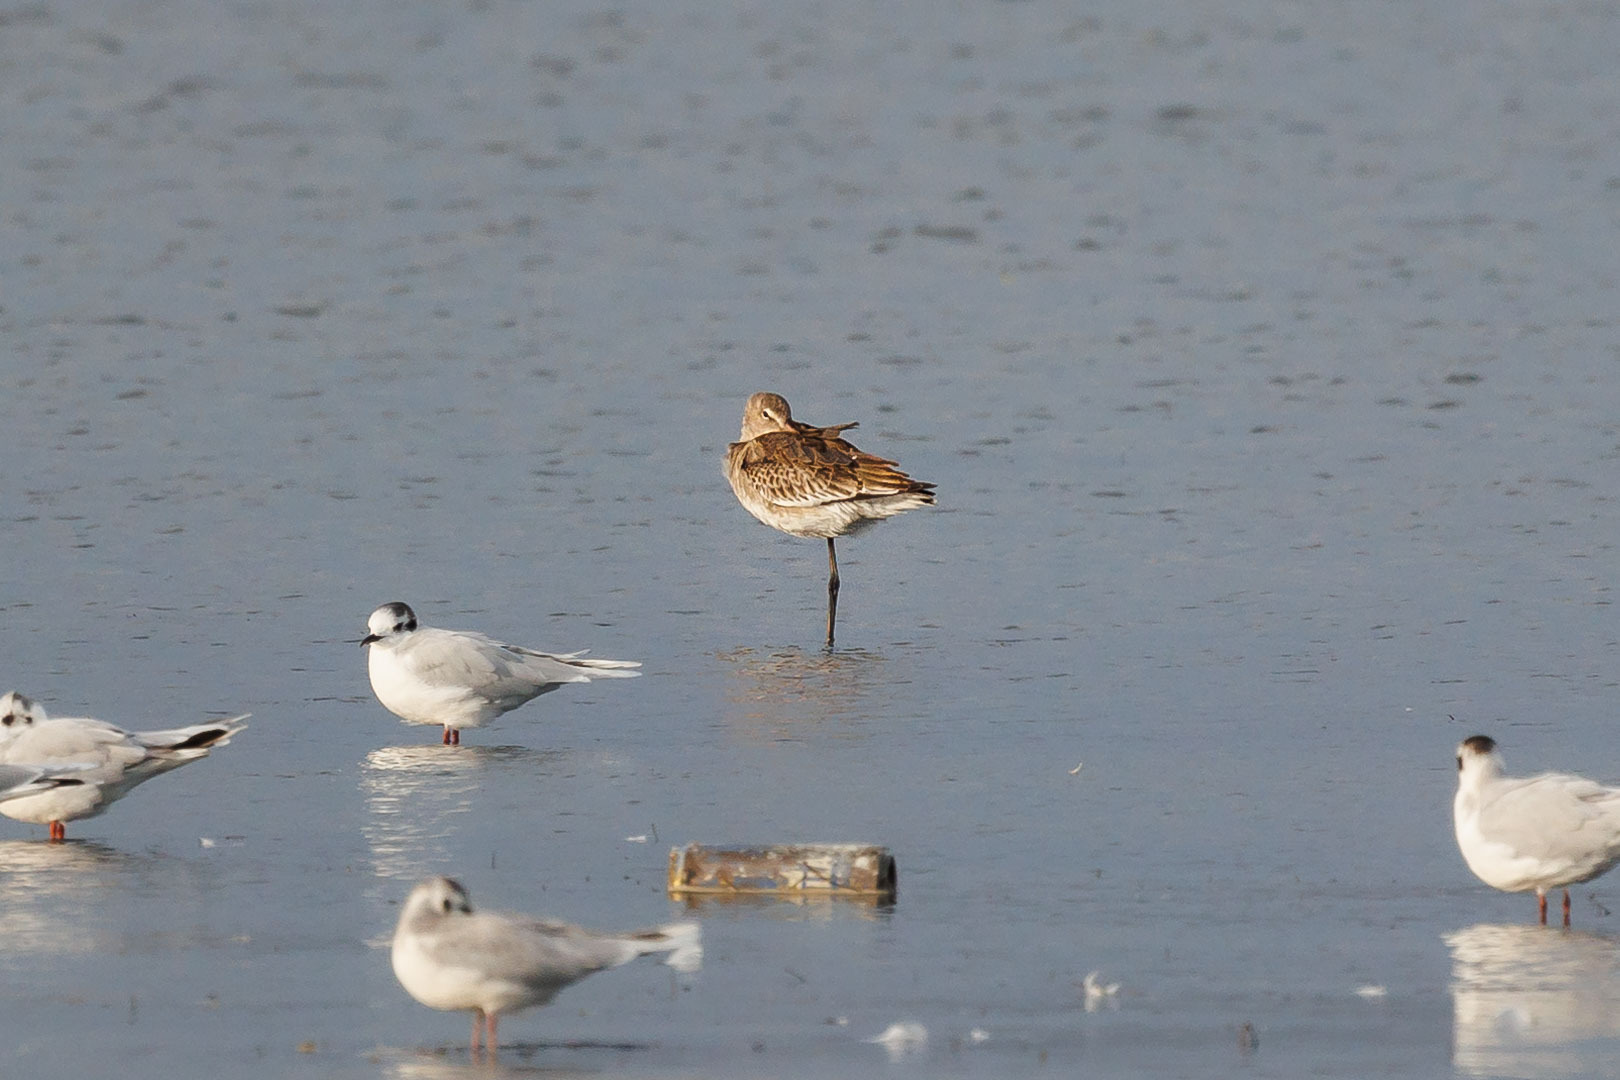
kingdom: Animalia
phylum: Chordata
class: Aves
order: Charadriiformes
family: Scolopacidae
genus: Limosa
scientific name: Limosa limosa
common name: Black-tailed godwit
